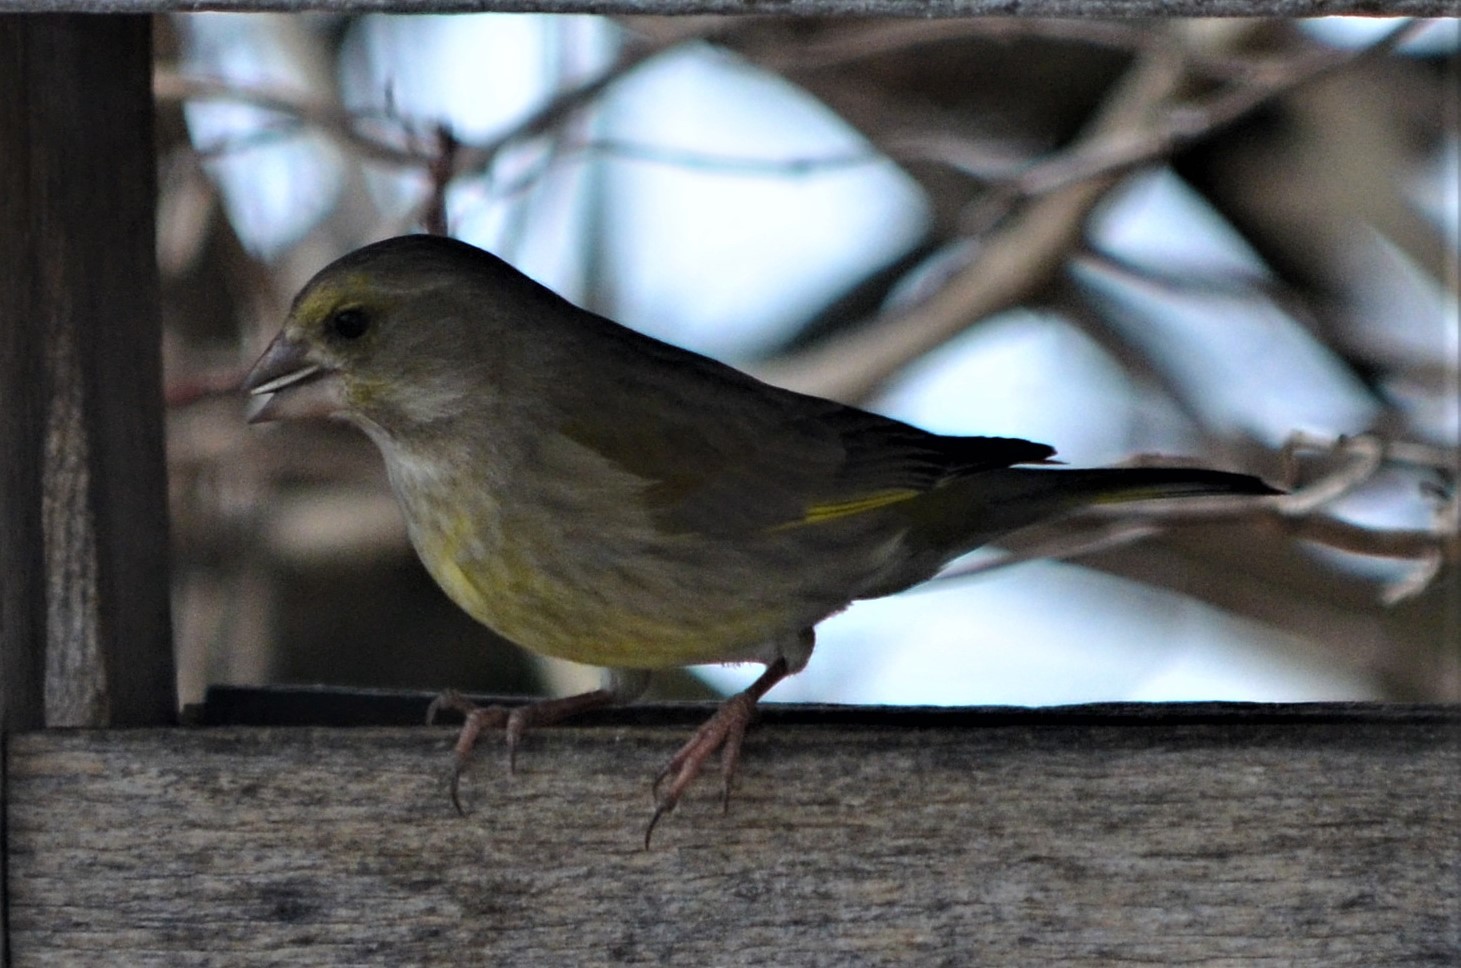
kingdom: Plantae
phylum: Tracheophyta
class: Liliopsida
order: Poales
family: Poaceae
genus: Chloris
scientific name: Chloris chloris
